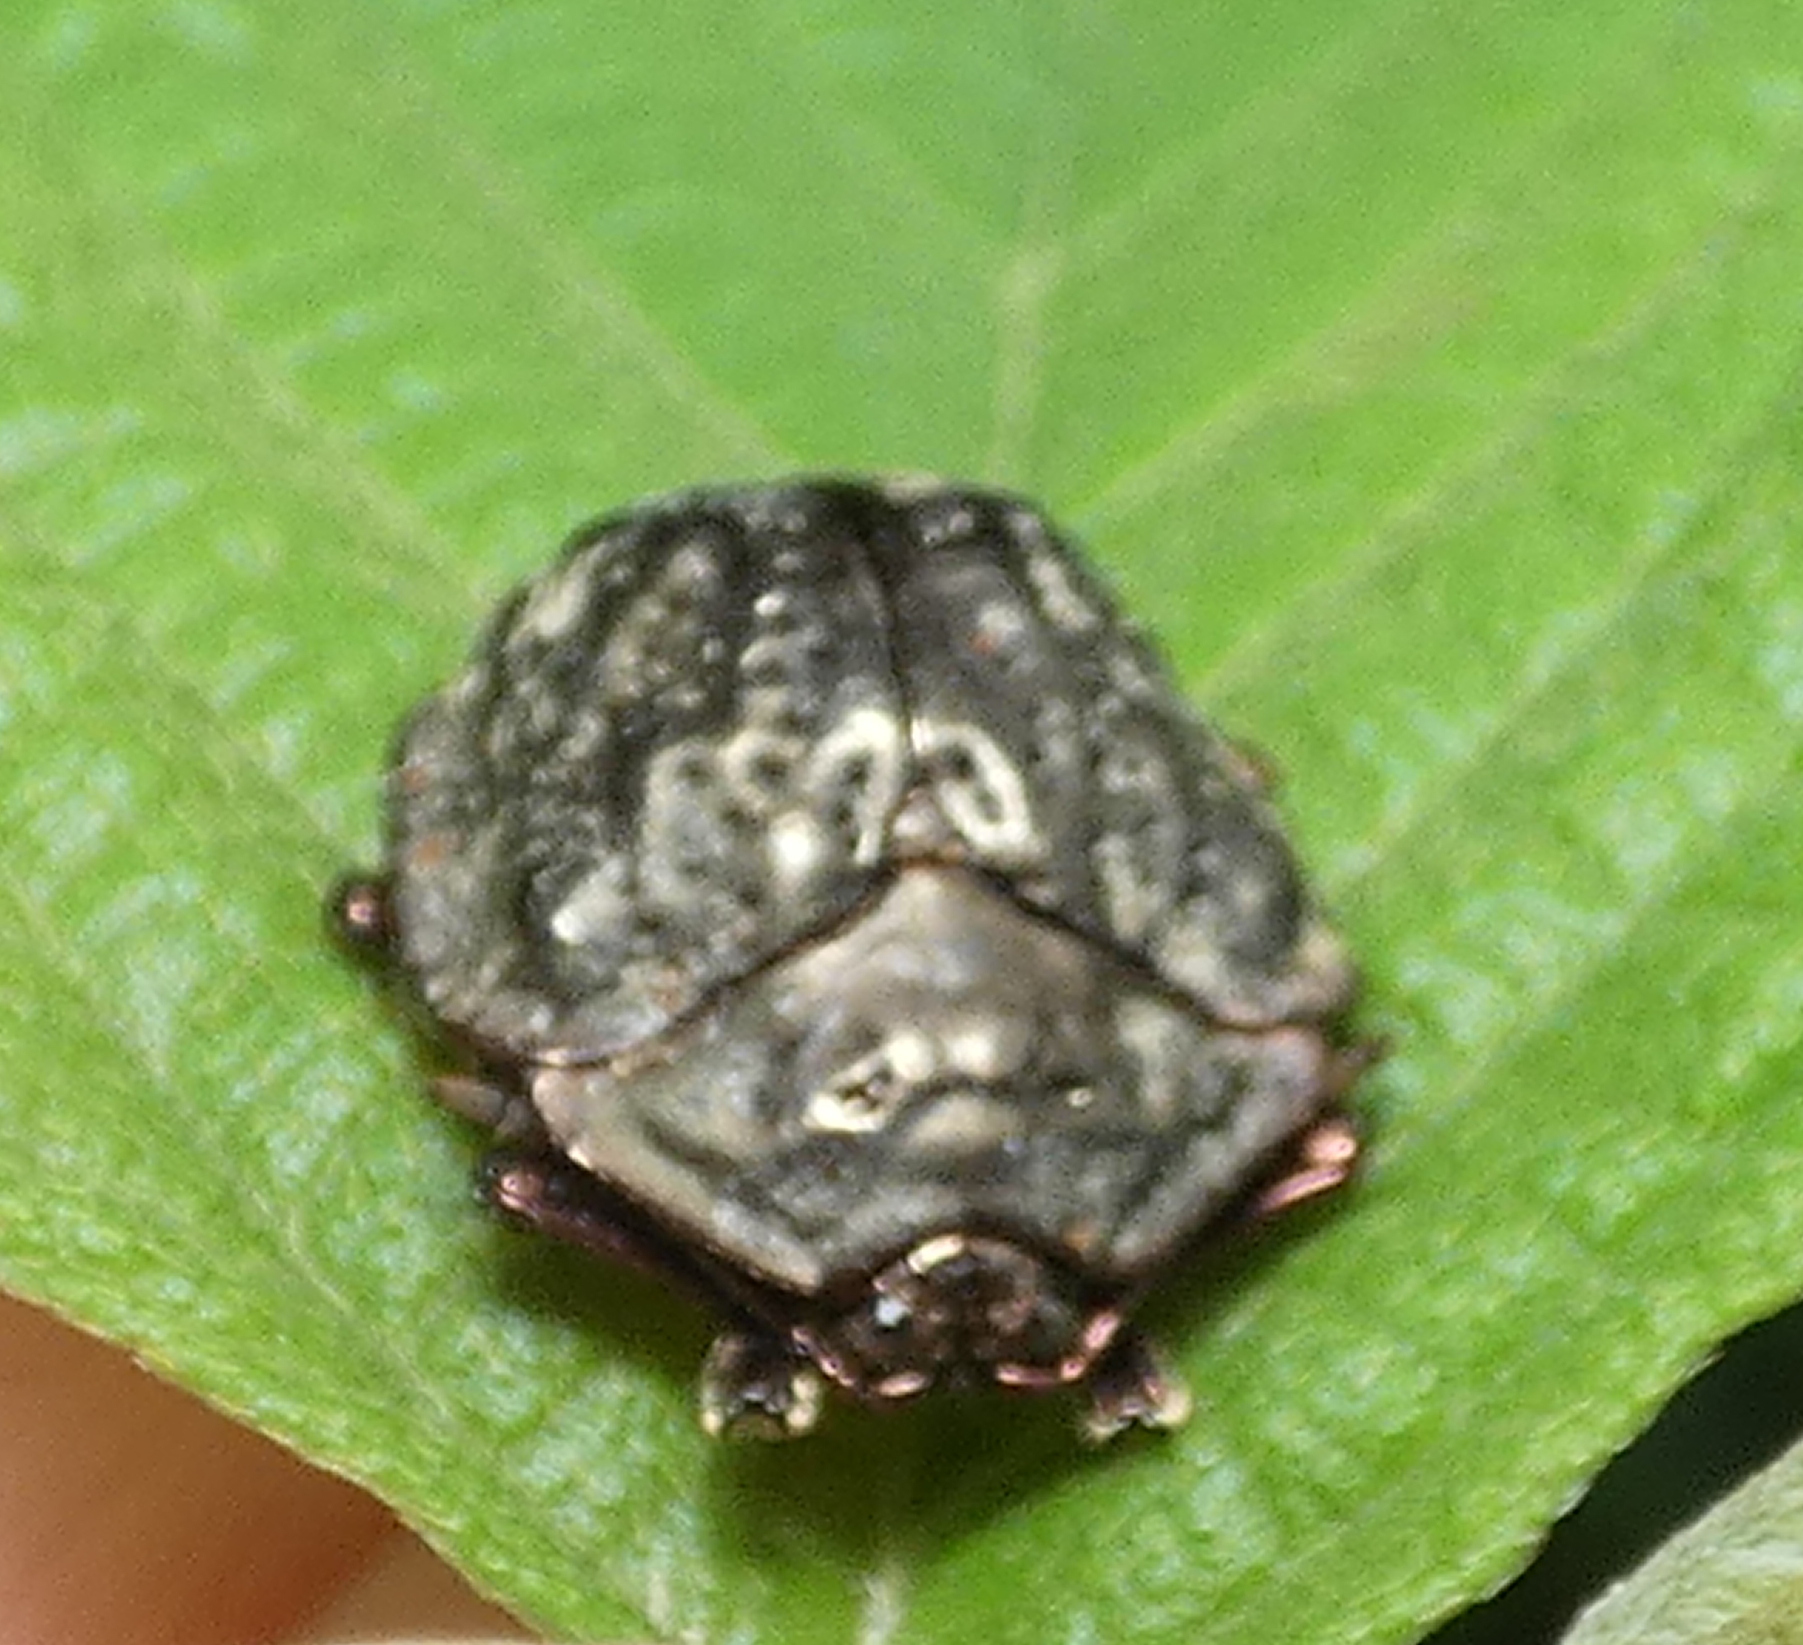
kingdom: Animalia
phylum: Arthropoda
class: Insecta
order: Coleoptera
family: Chrysomelidae
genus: Polychalca
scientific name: Polychalca aerea
